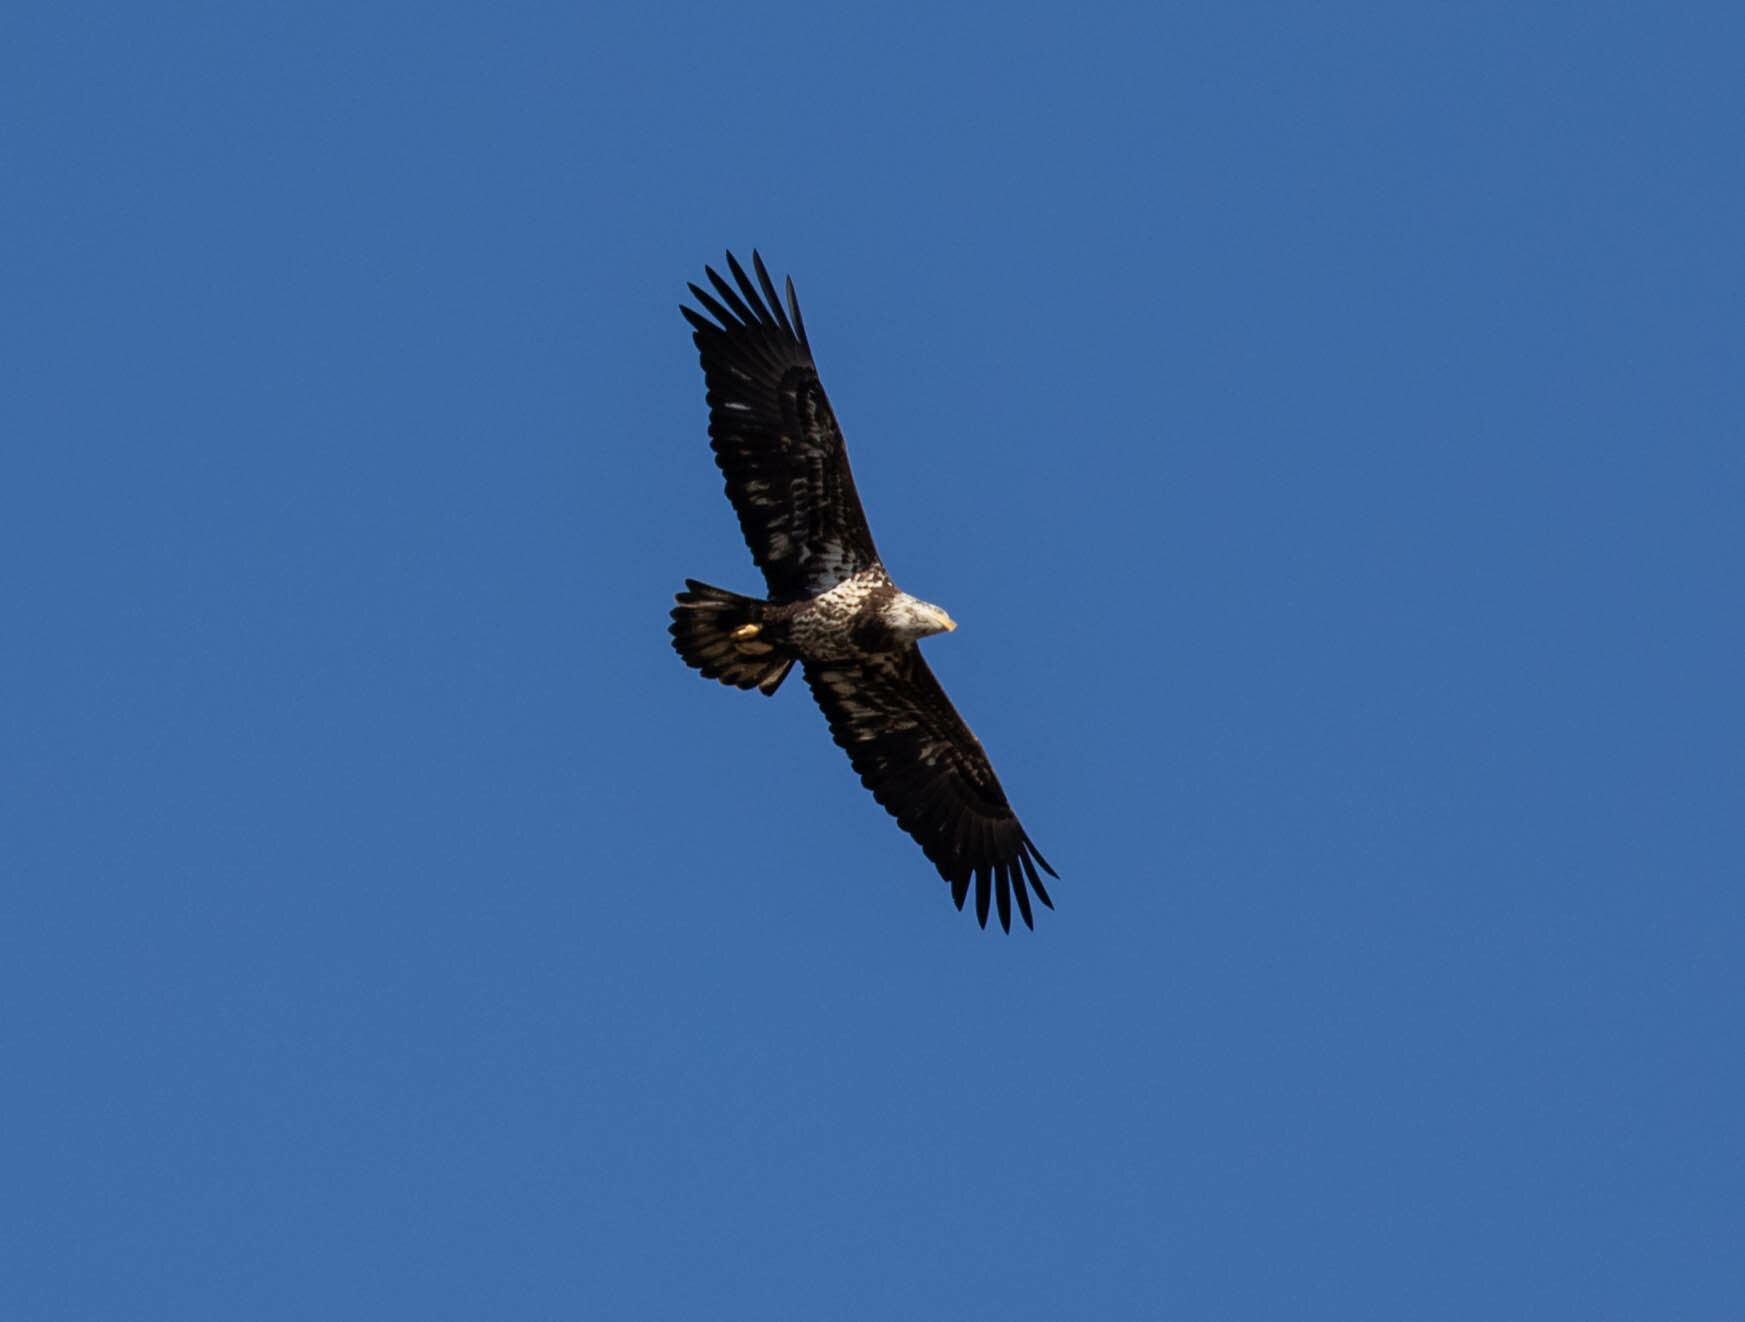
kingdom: Animalia
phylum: Chordata
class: Aves
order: Accipitriformes
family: Accipitridae
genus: Haliaeetus
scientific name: Haliaeetus leucocephalus
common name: Bald eagle
